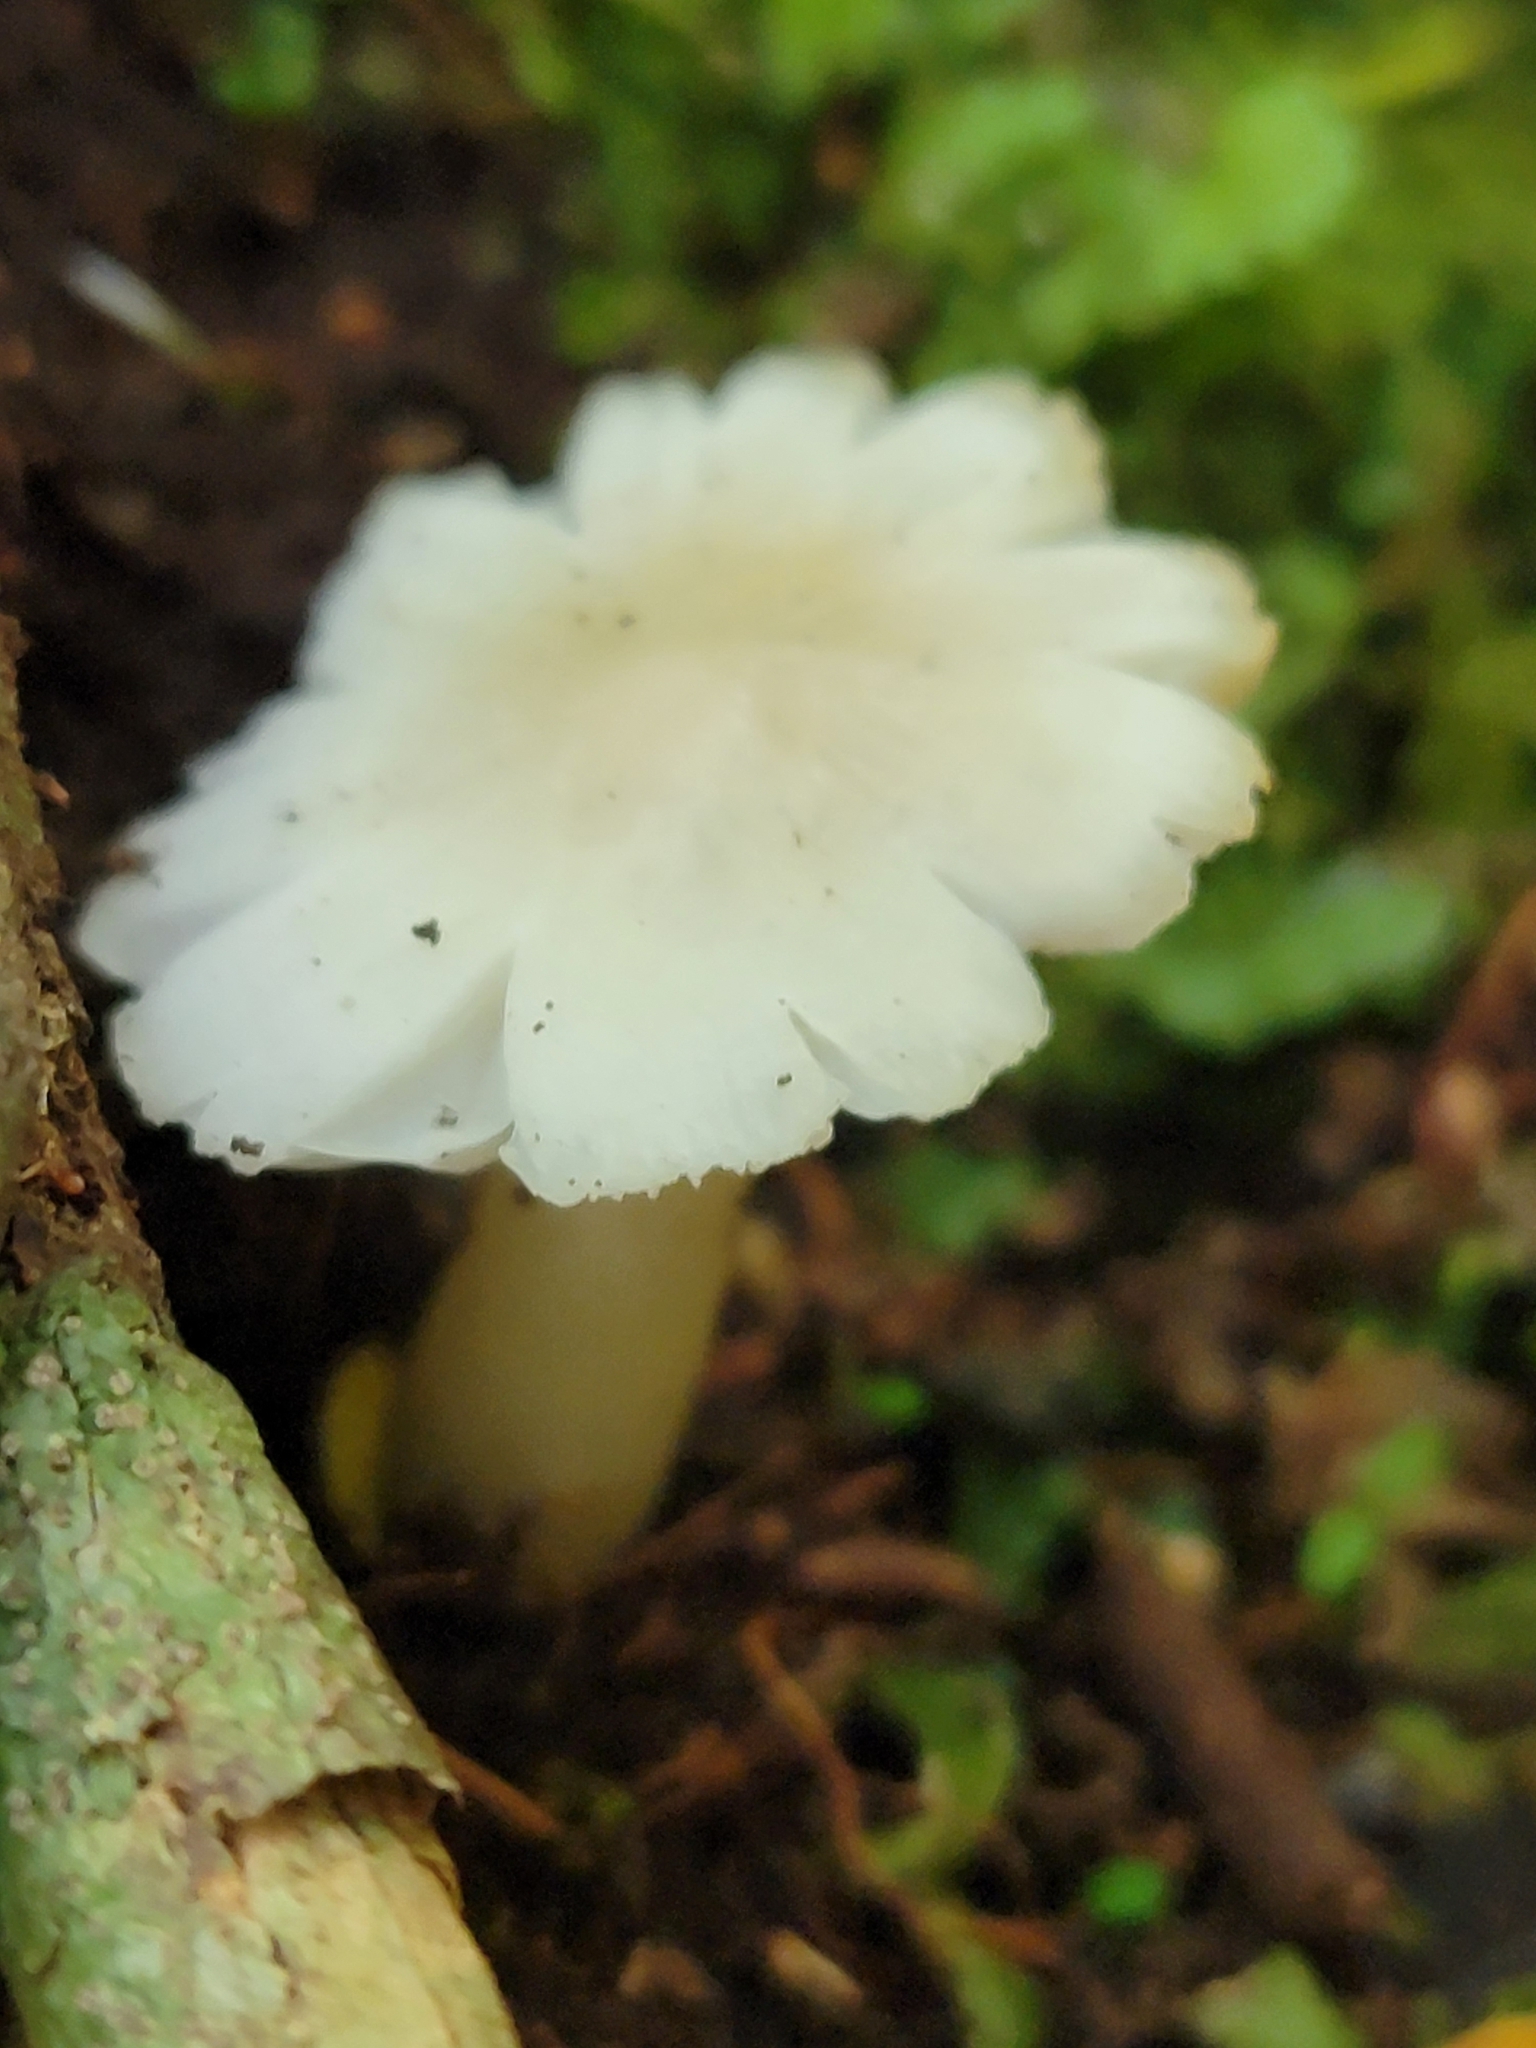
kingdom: Fungi
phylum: Basidiomycota
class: Agaricomycetes
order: Agaricales
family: Hygrophoraceae
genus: Humidicutis
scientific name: Humidicutis mavis
